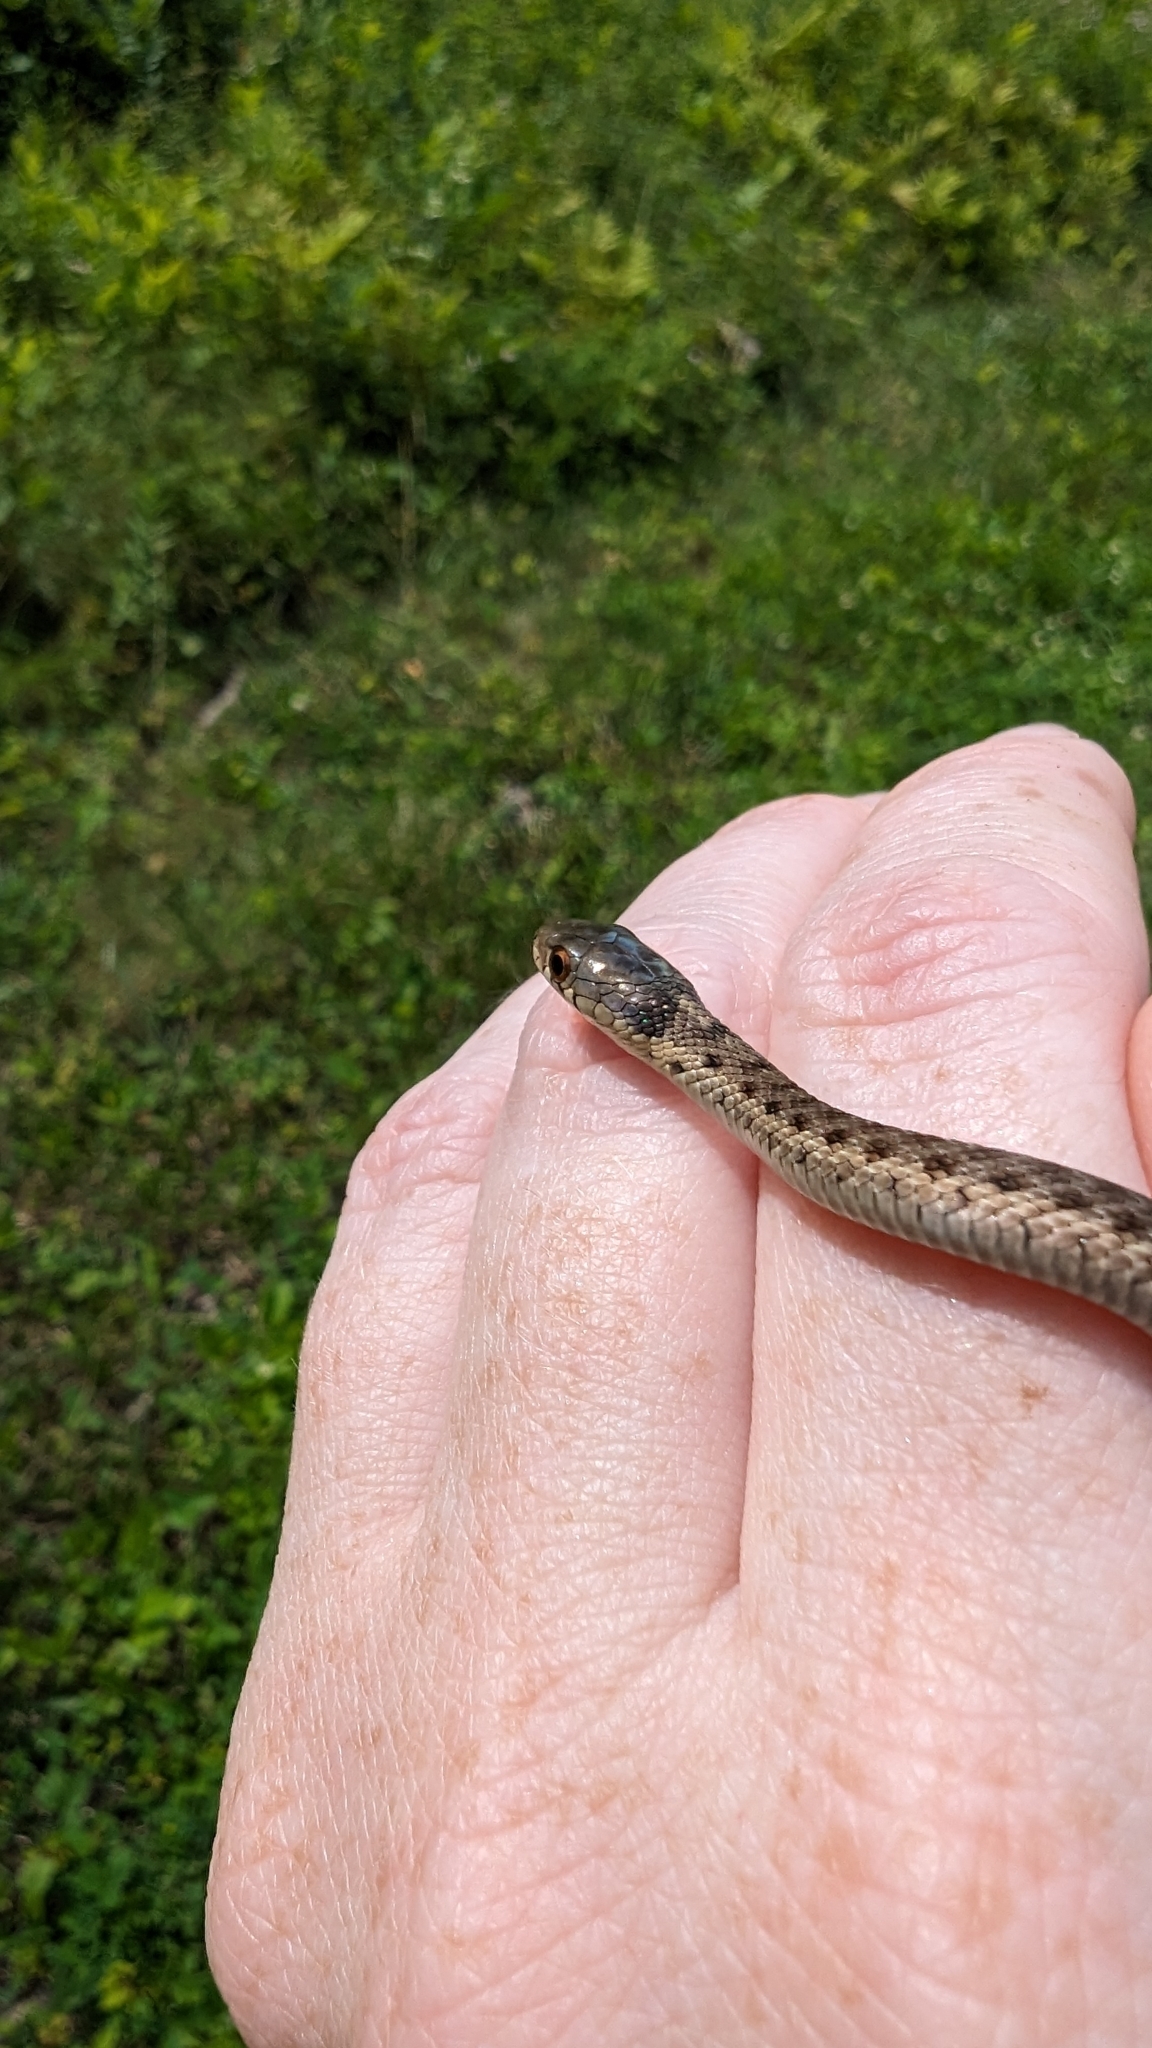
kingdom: Animalia
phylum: Chordata
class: Squamata
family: Colubridae
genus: Thamnophis
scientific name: Thamnophis sirtalis
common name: Common garter snake
